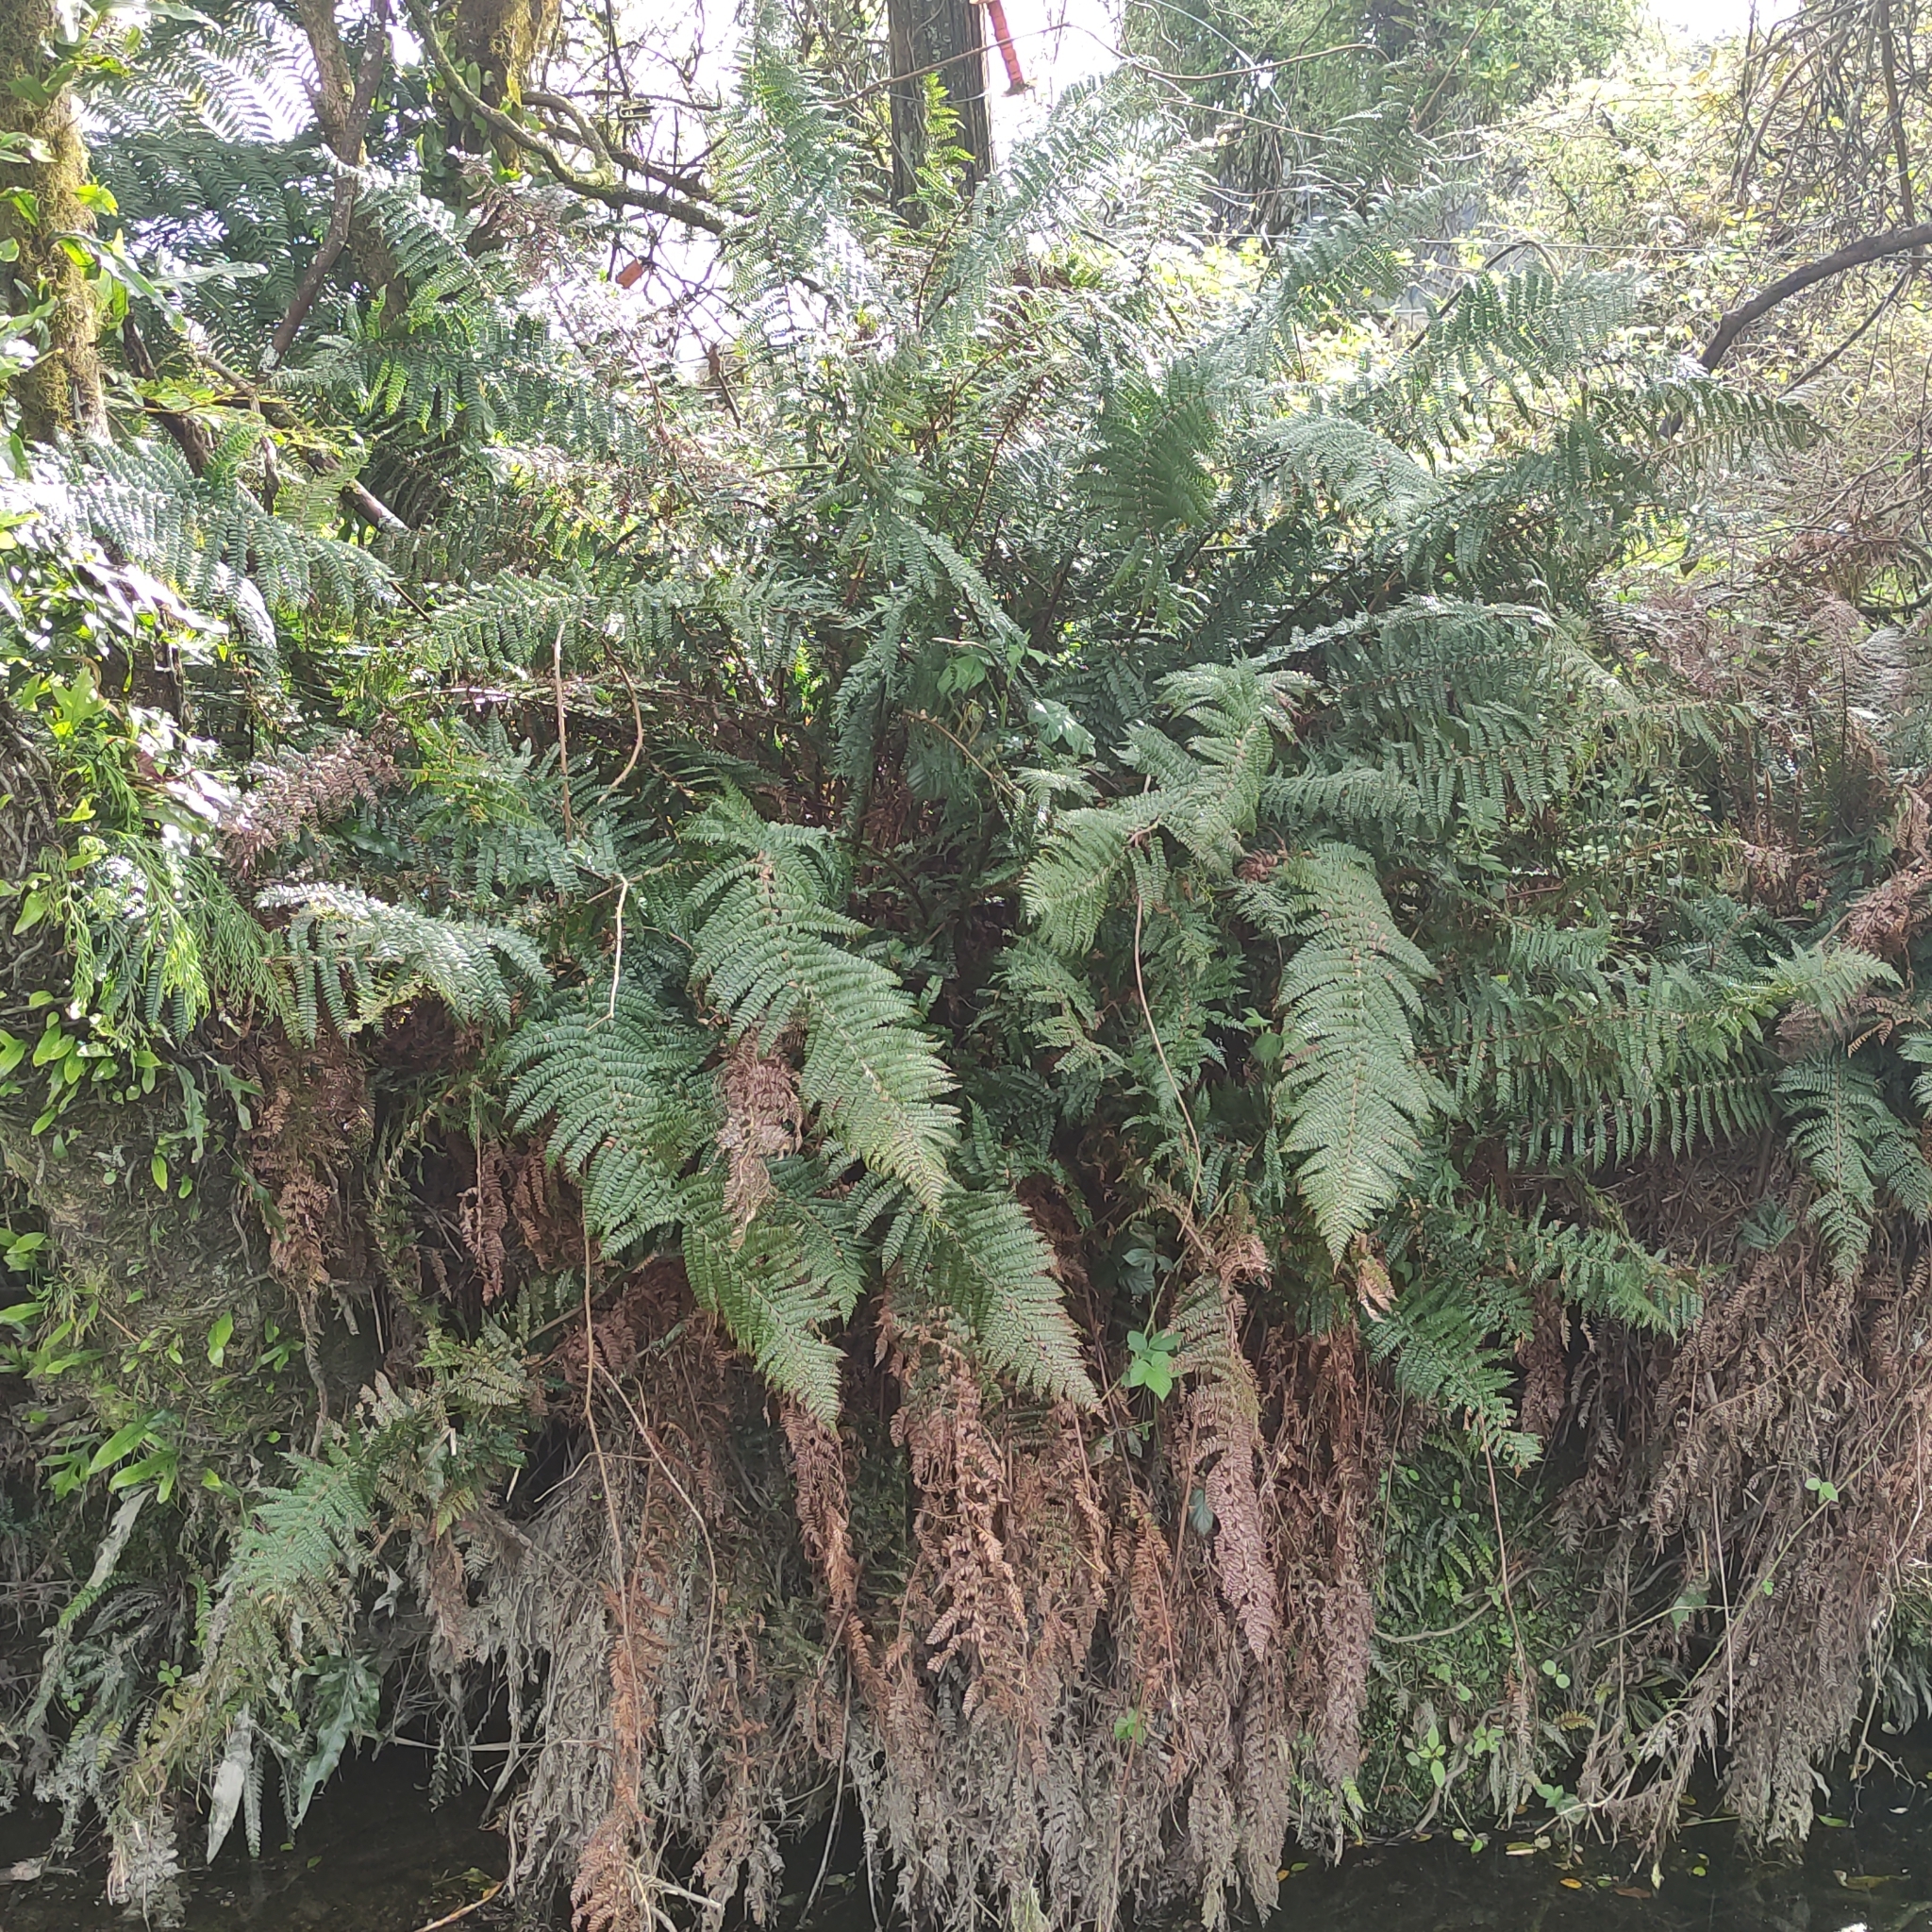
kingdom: Plantae
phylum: Tracheophyta
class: Polypodiopsida
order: Polypodiales
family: Dryopteridaceae
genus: Polystichum
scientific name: Polystichum vestitum
